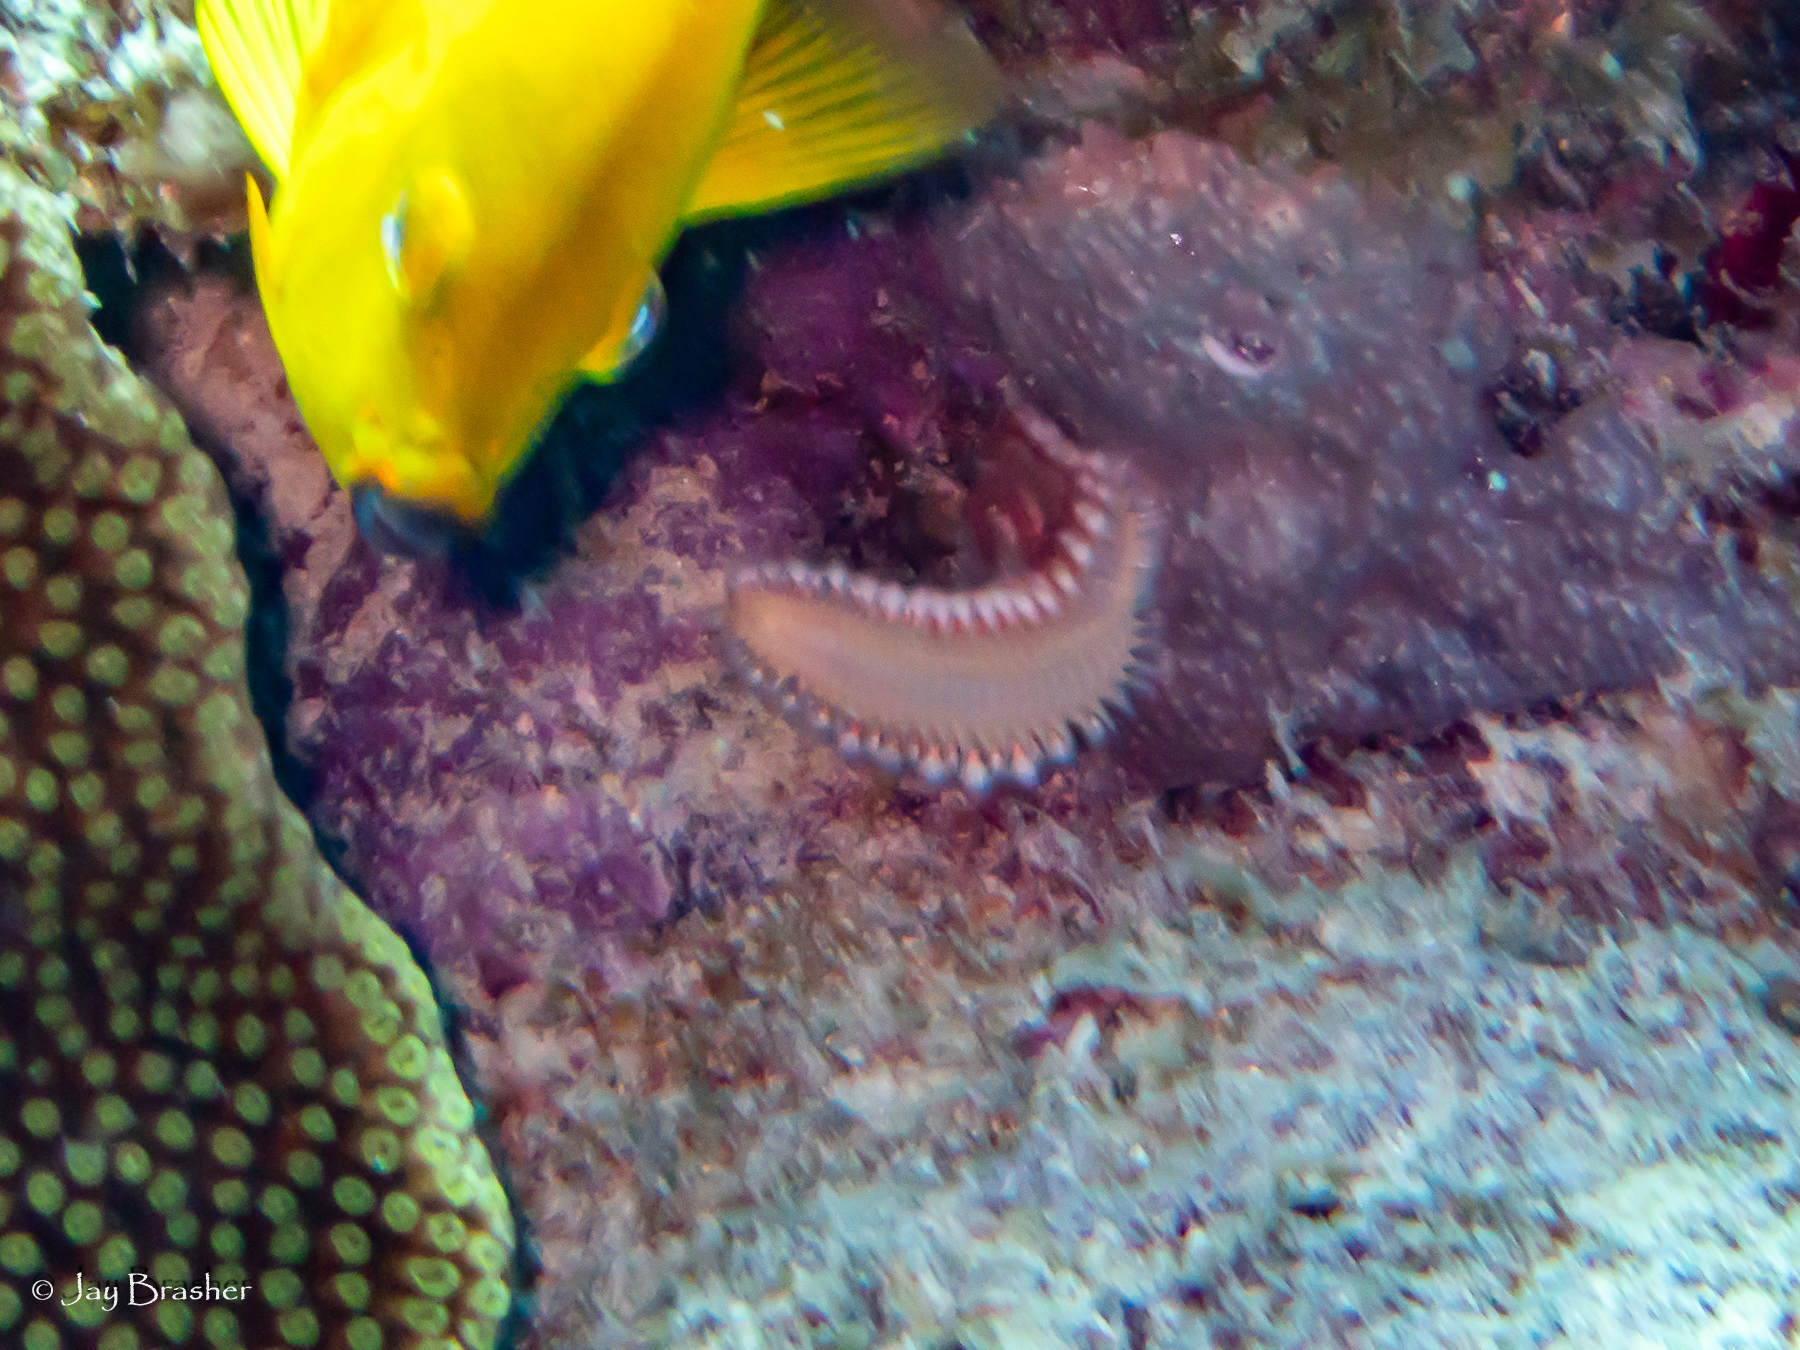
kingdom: Animalia
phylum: Annelida
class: Polychaeta
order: Amphinomida
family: Amphinomidae
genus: Hermodice
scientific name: Hermodice carunculata
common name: Bearded fireworm
